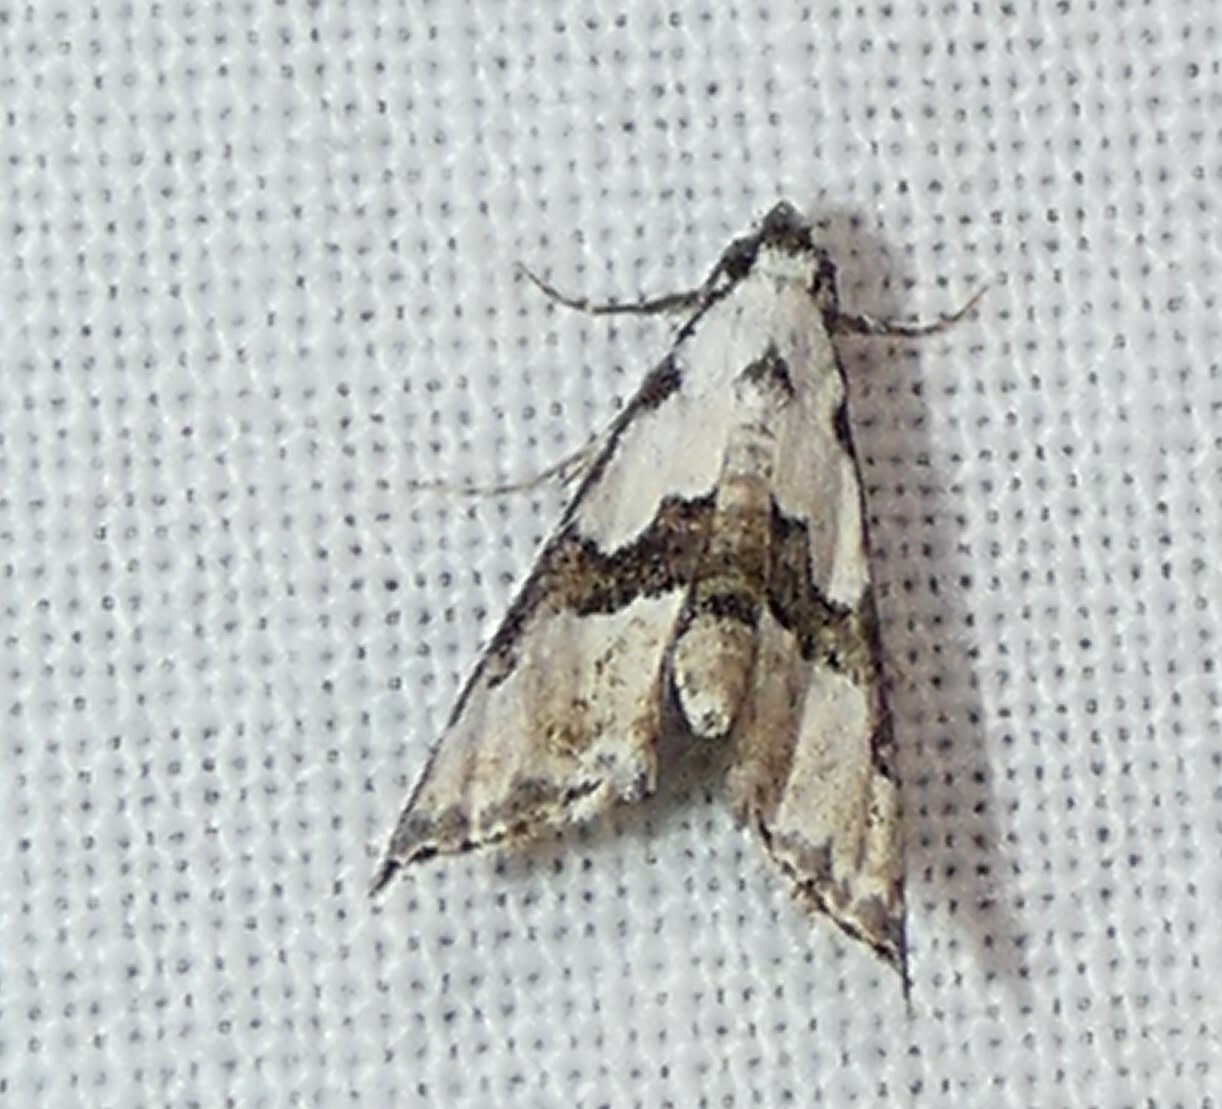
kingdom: Animalia
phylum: Arthropoda
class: Insecta
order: Lepidoptera
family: Noctuidae
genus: Nigetia
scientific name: Nigetia formosalis
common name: Thin-winged owlet
